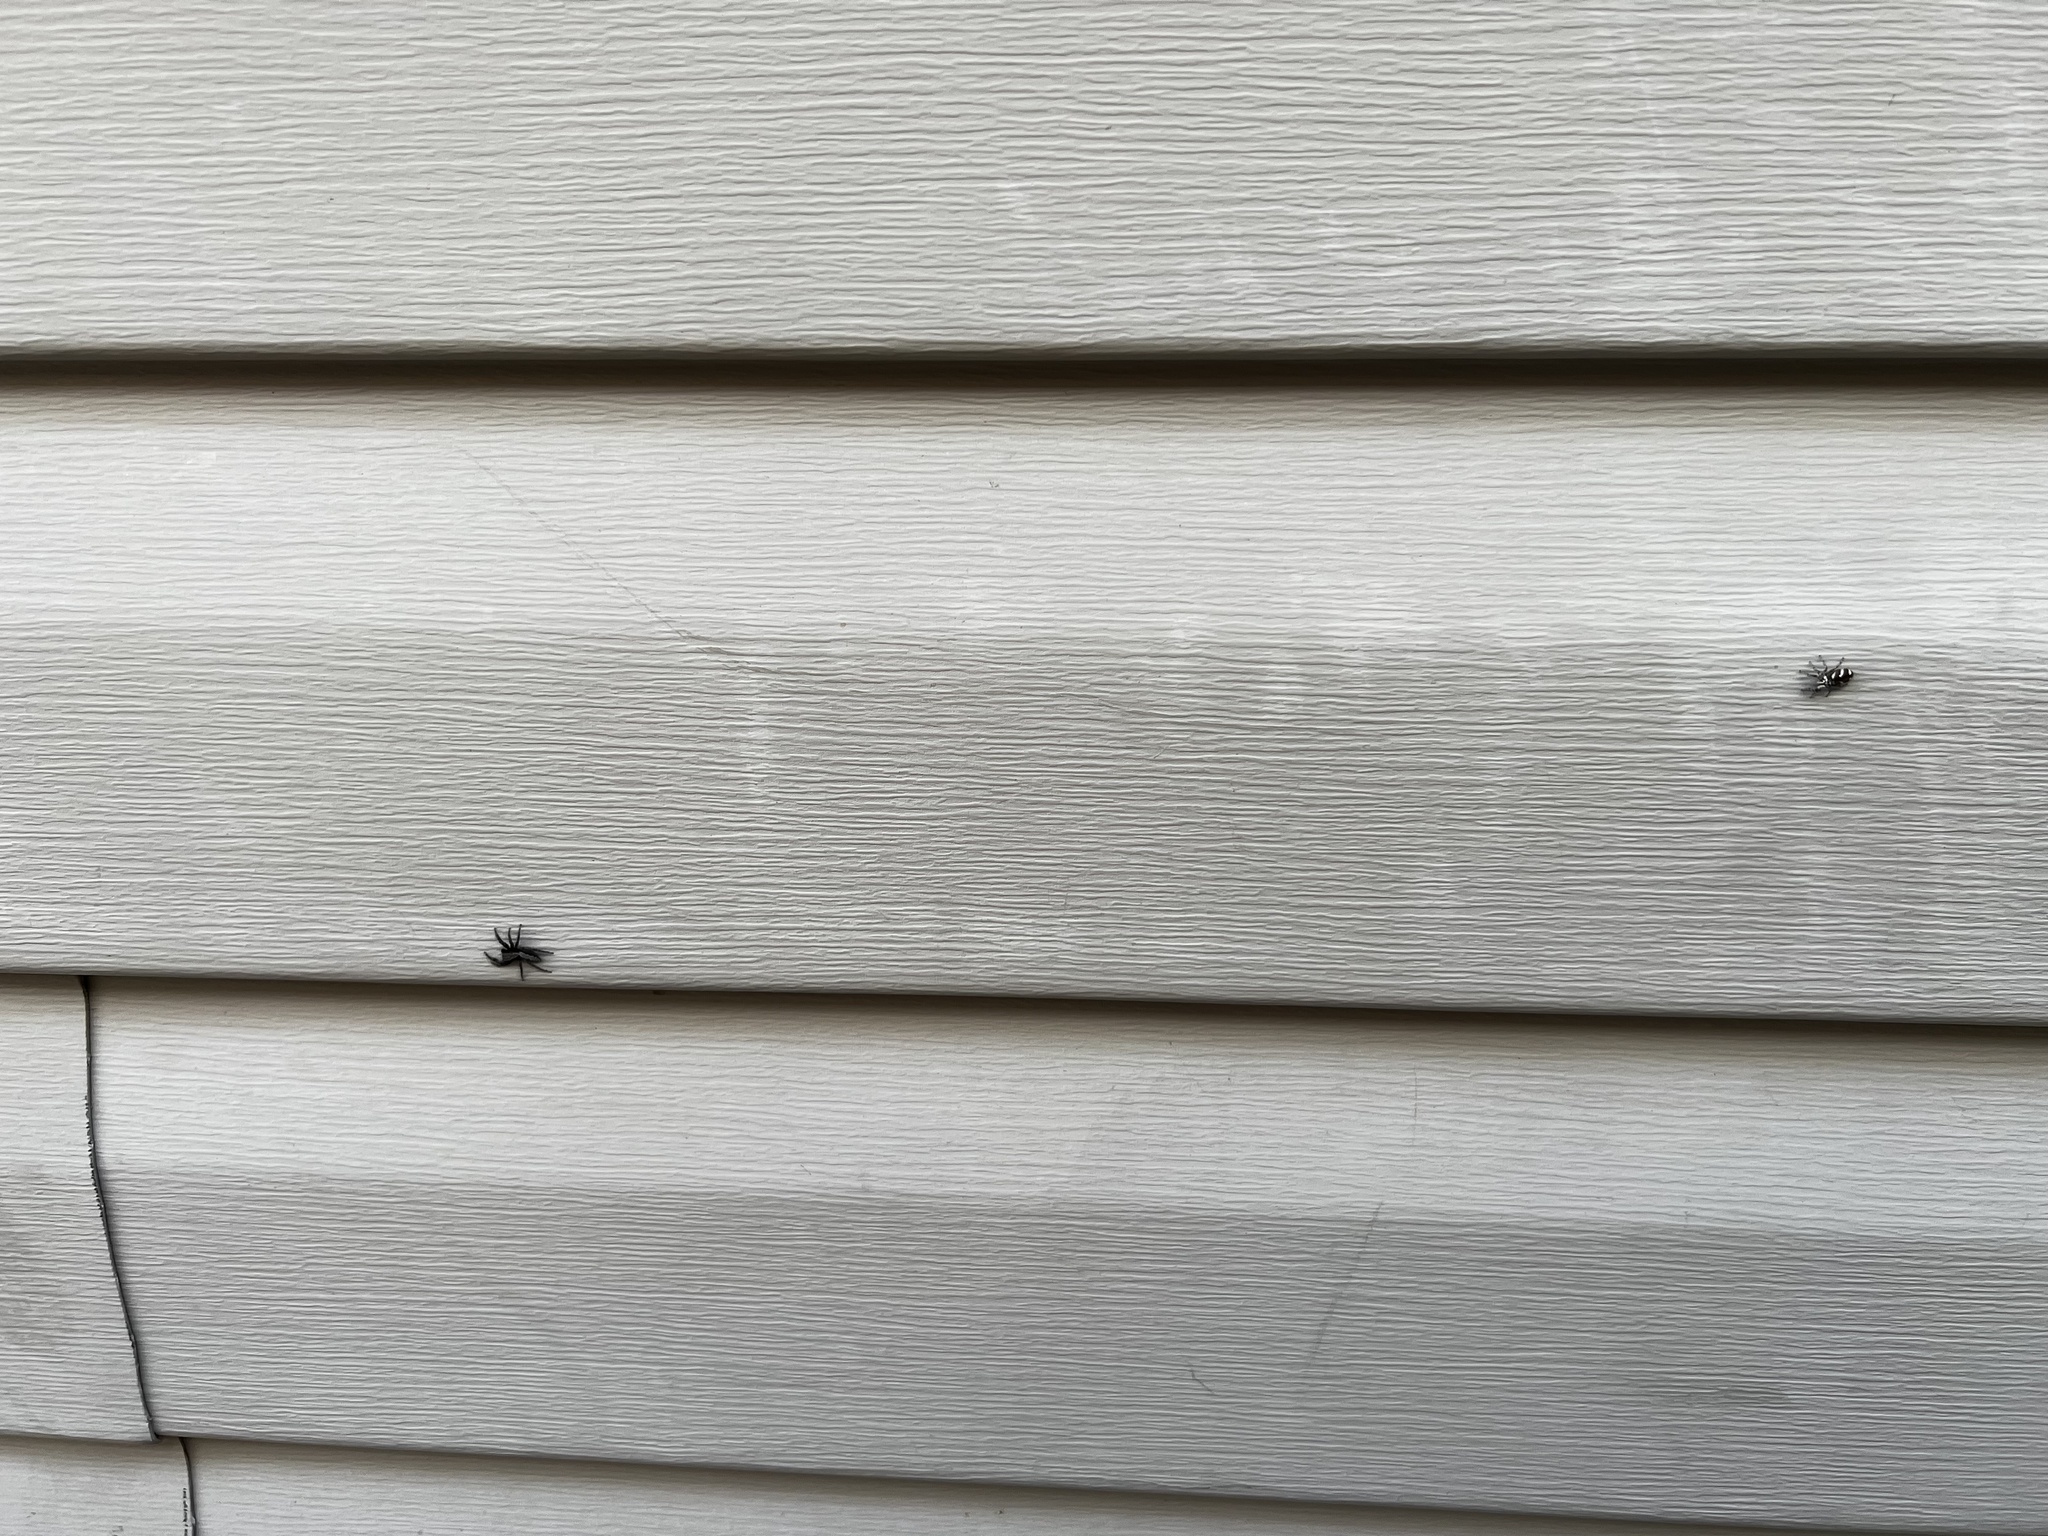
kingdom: Animalia
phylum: Arthropoda
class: Arachnida
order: Araneae
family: Salticidae
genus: Salticus
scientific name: Salticus scenicus
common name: Zebra jumper
